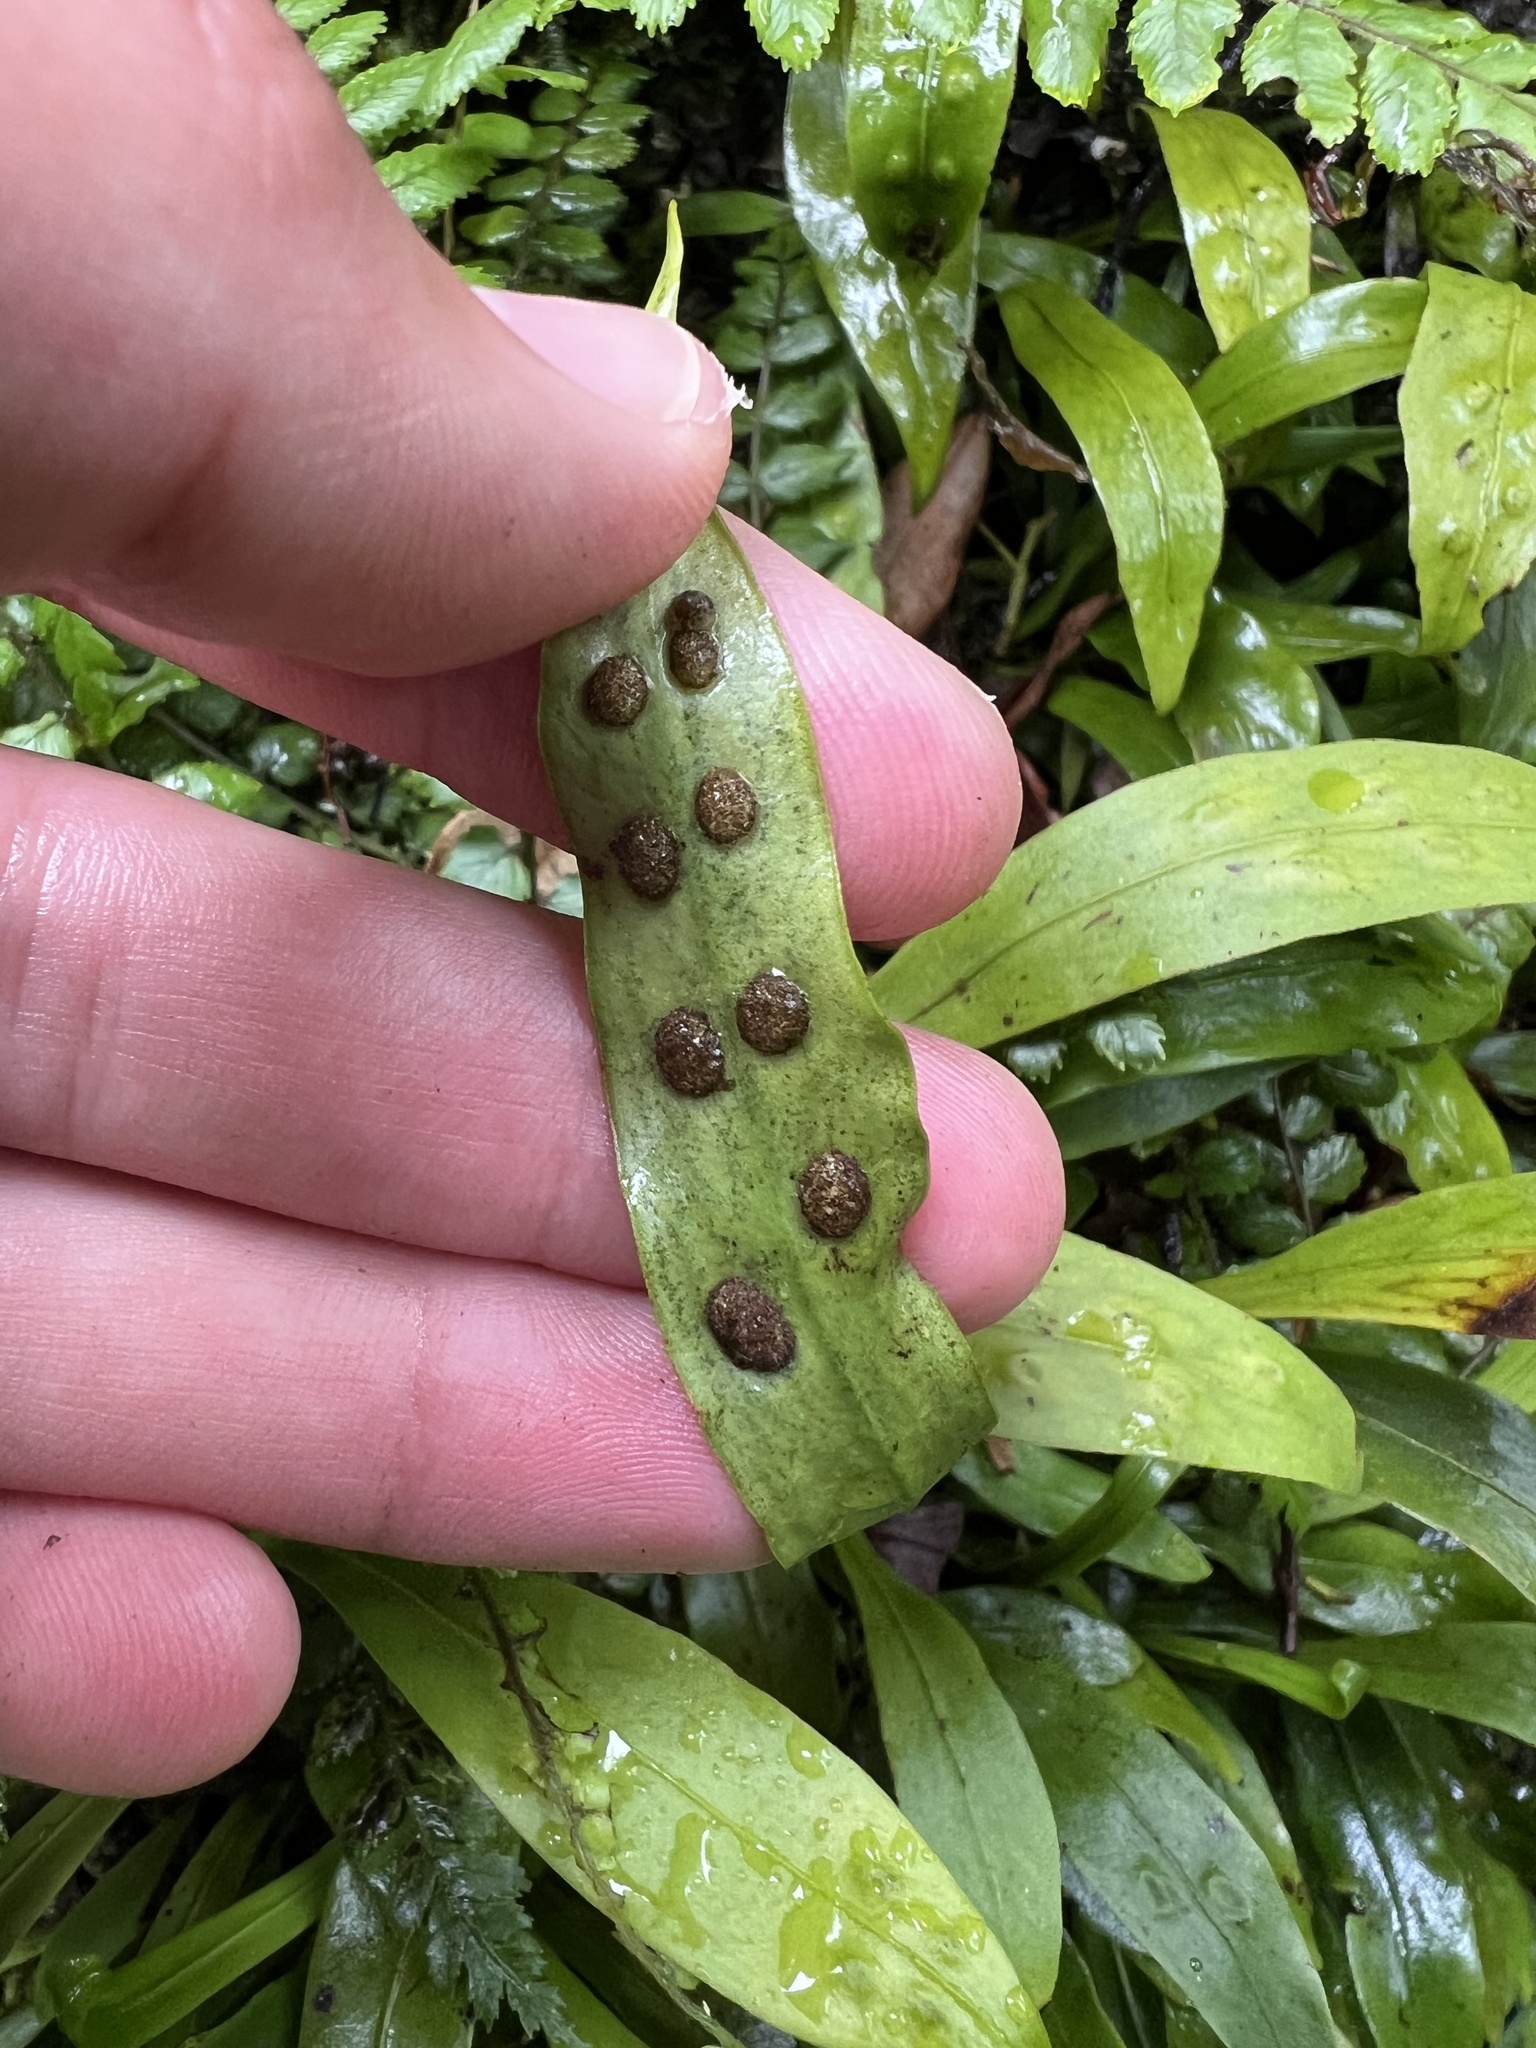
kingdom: Plantae
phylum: Tracheophyta
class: Polypodiopsida
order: Polypodiales
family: Polypodiaceae
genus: Loxogramme
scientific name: Loxogramme dictyopteris
